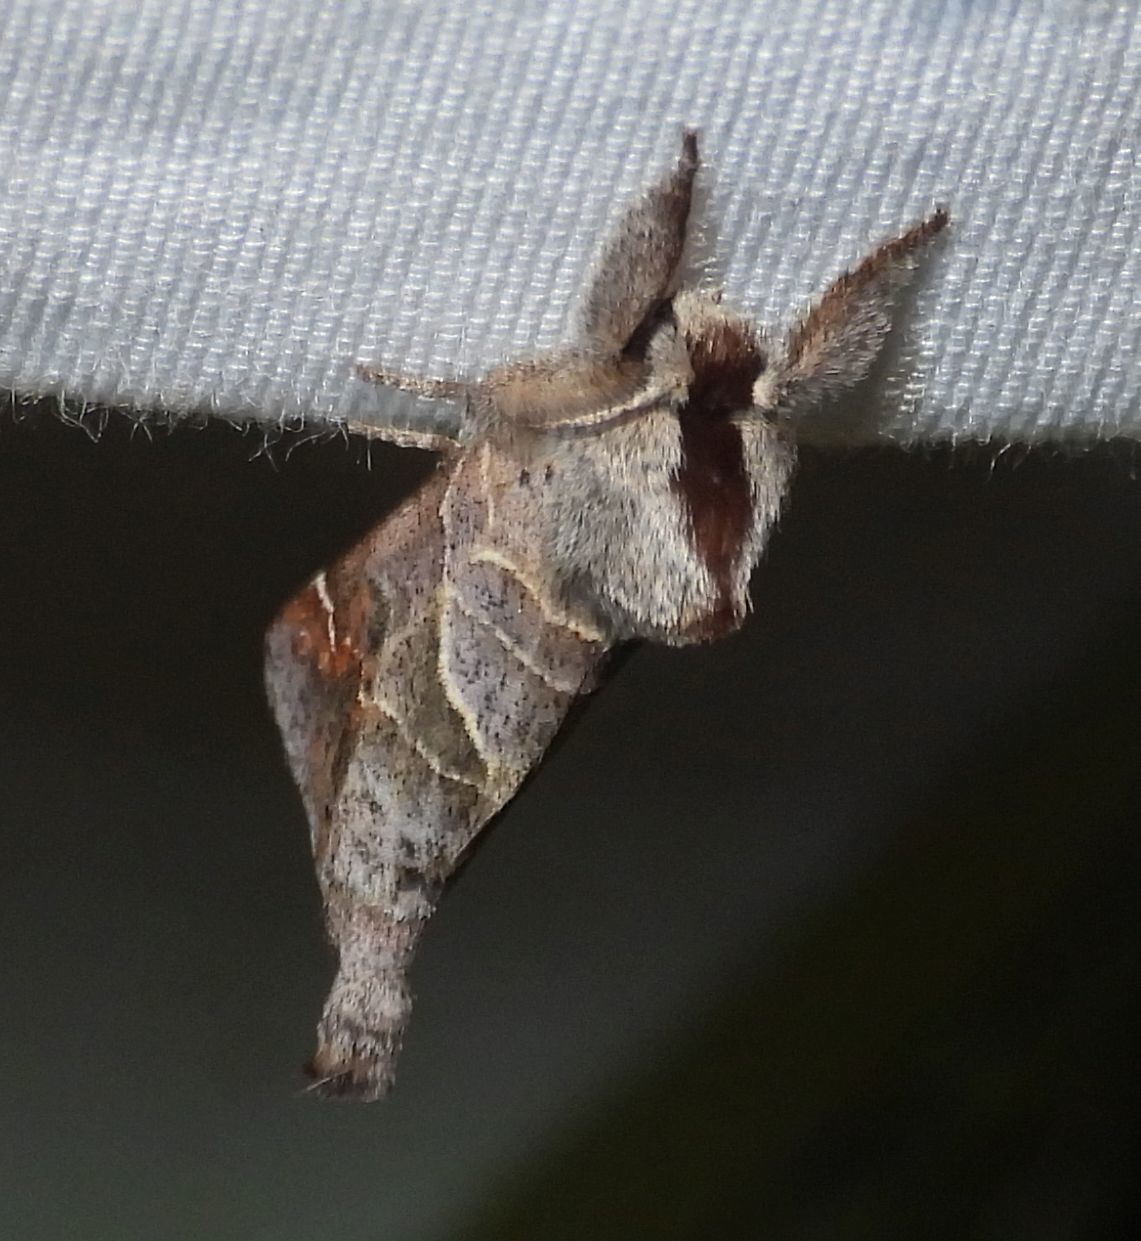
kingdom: Animalia
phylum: Arthropoda
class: Insecta
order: Lepidoptera
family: Notodontidae
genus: Clostera
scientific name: Clostera apicalis
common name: Apical prominent
